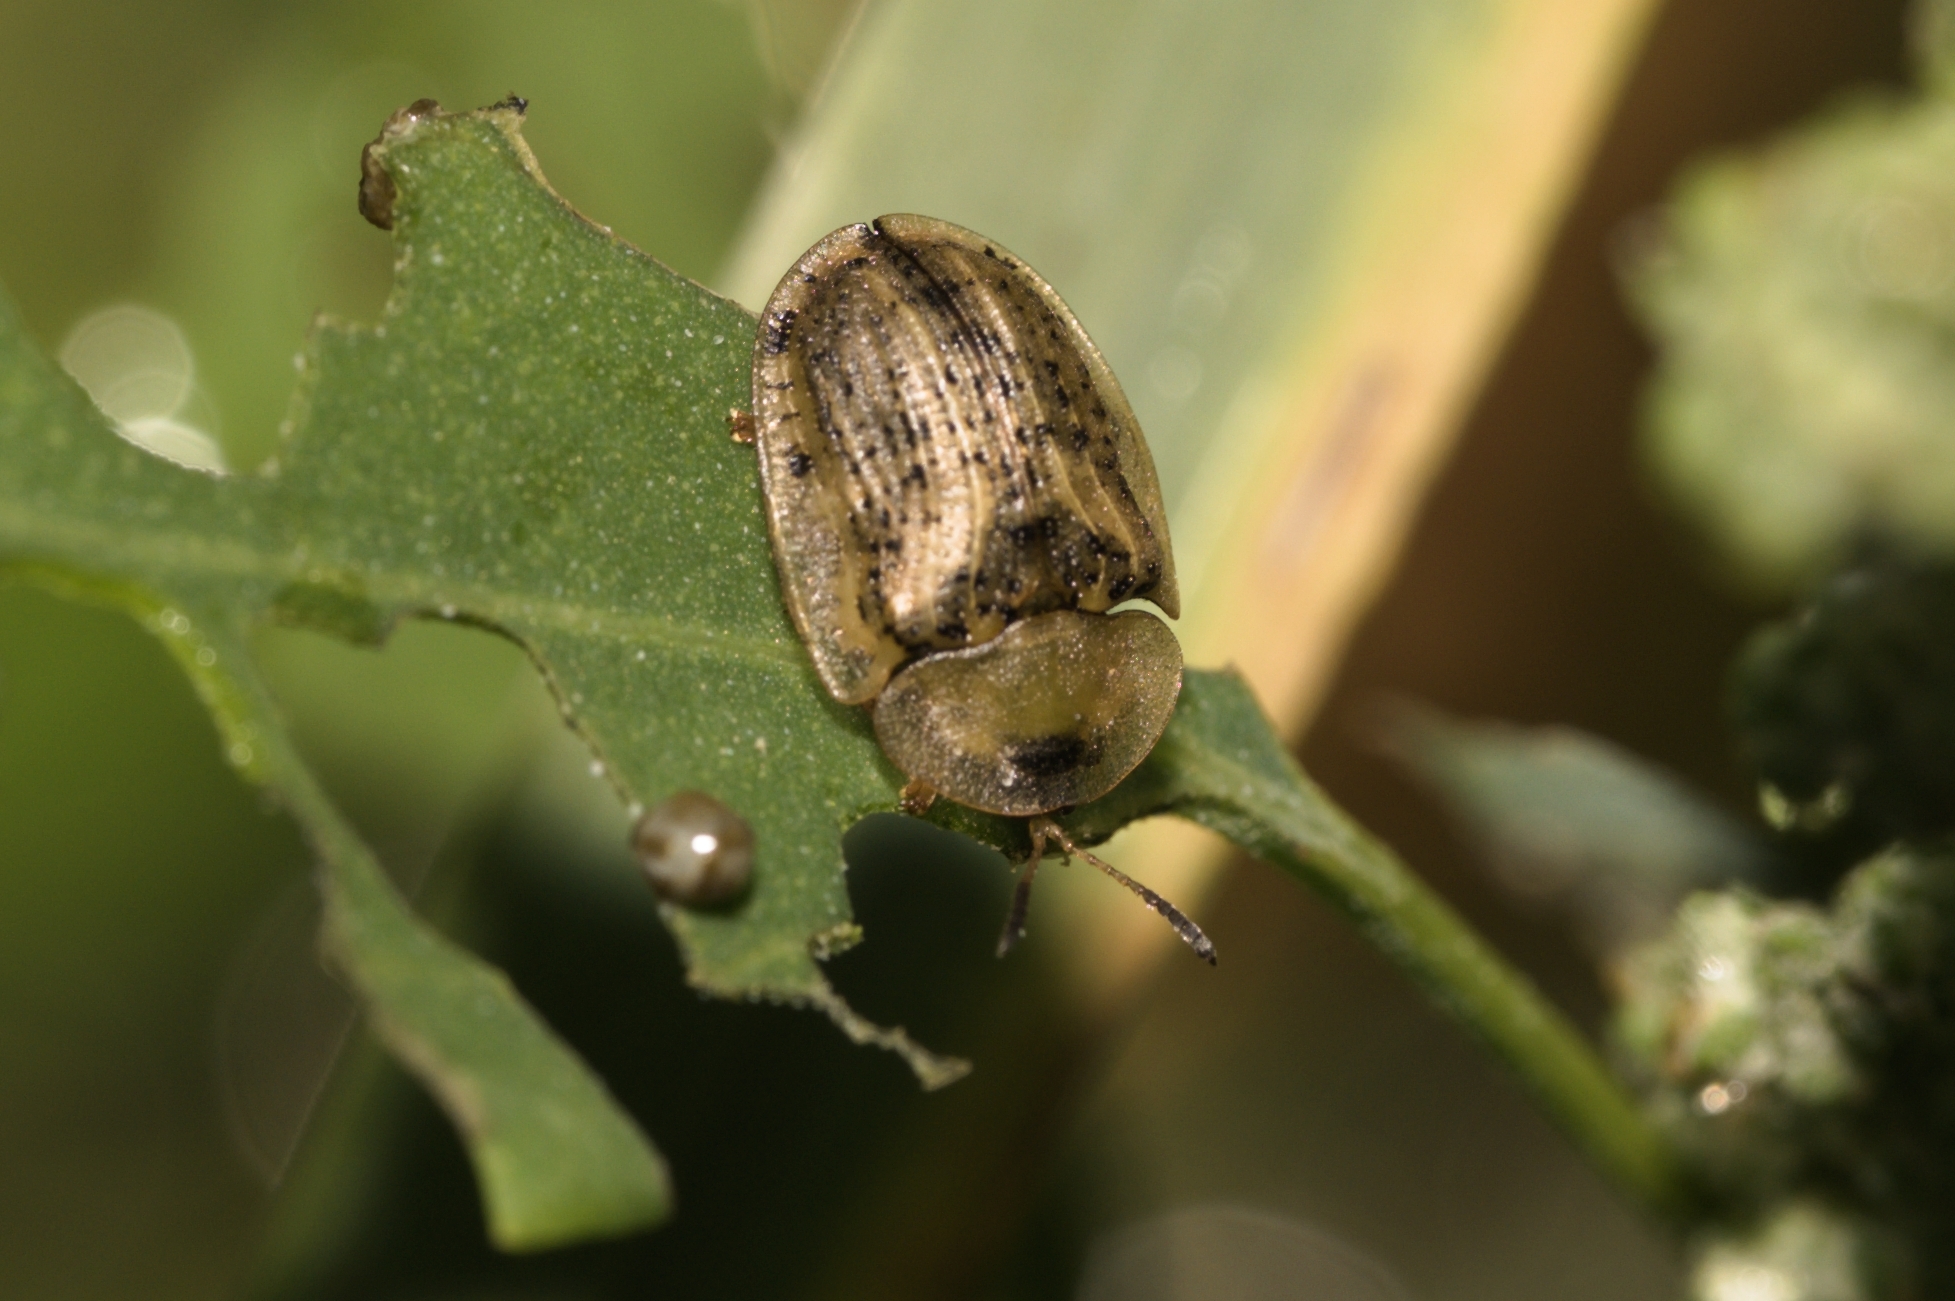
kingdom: Animalia
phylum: Arthropoda
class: Insecta
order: Coleoptera
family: Chrysomelidae
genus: Cassida
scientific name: Cassida nebulosa
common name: Beet tortoise beetle
